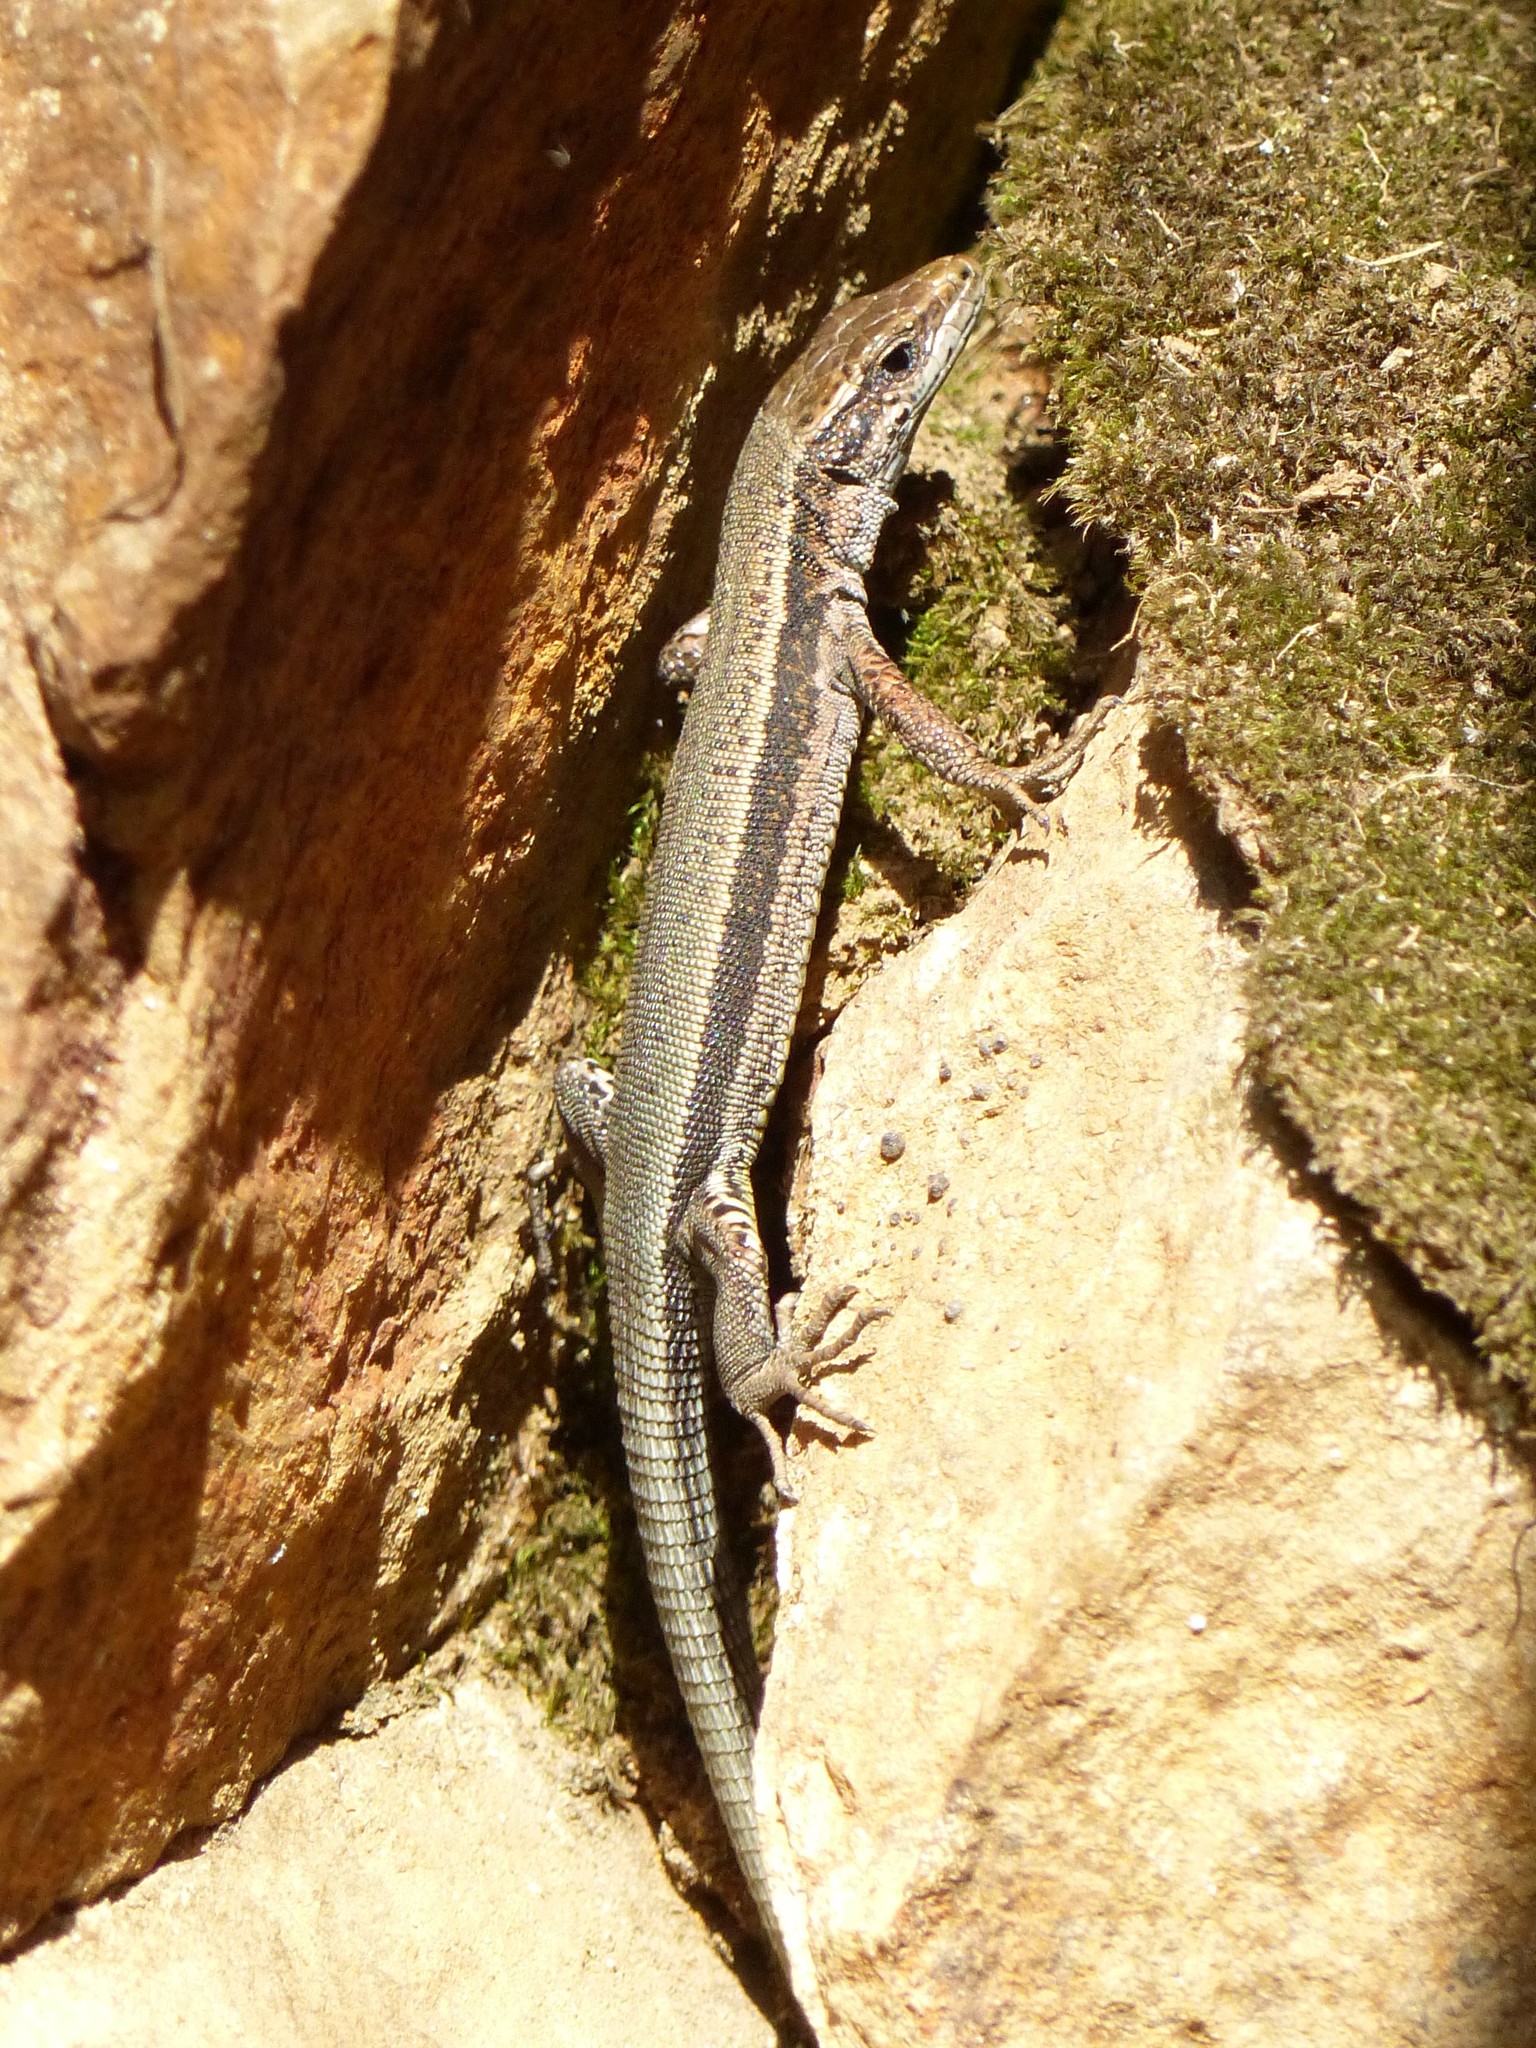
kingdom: Animalia
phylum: Chordata
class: Squamata
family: Lacertidae
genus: Iberolacerta
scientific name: Iberolacerta aurelioi
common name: Aurelio's rock lizard
